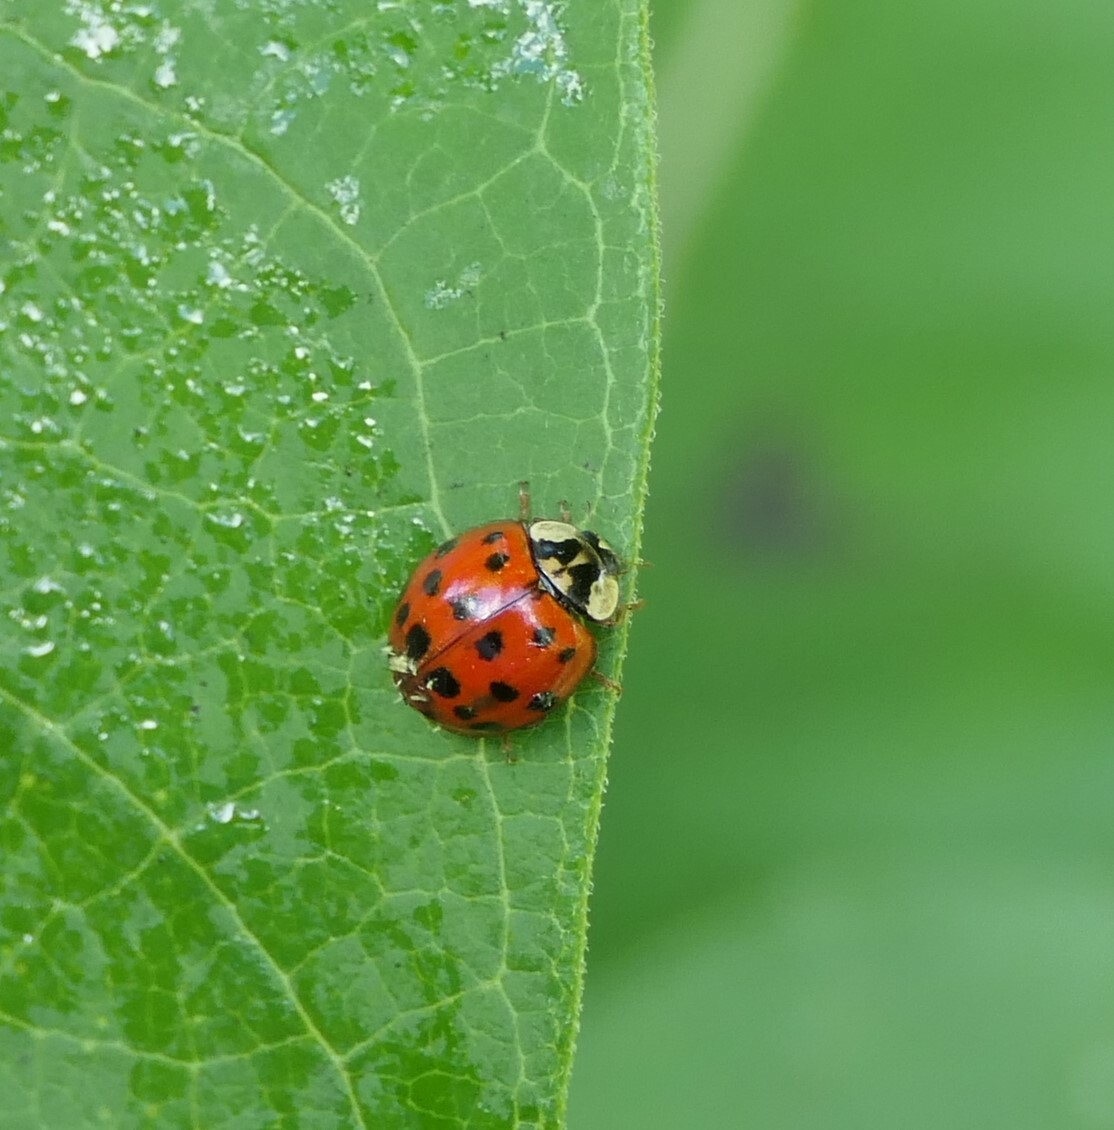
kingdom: Animalia
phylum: Arthropoda
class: Insecta
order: Coleoptera
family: Coccinellidae
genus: Harmonia
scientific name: Harmonia axyridis
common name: Harlequin ladybird
